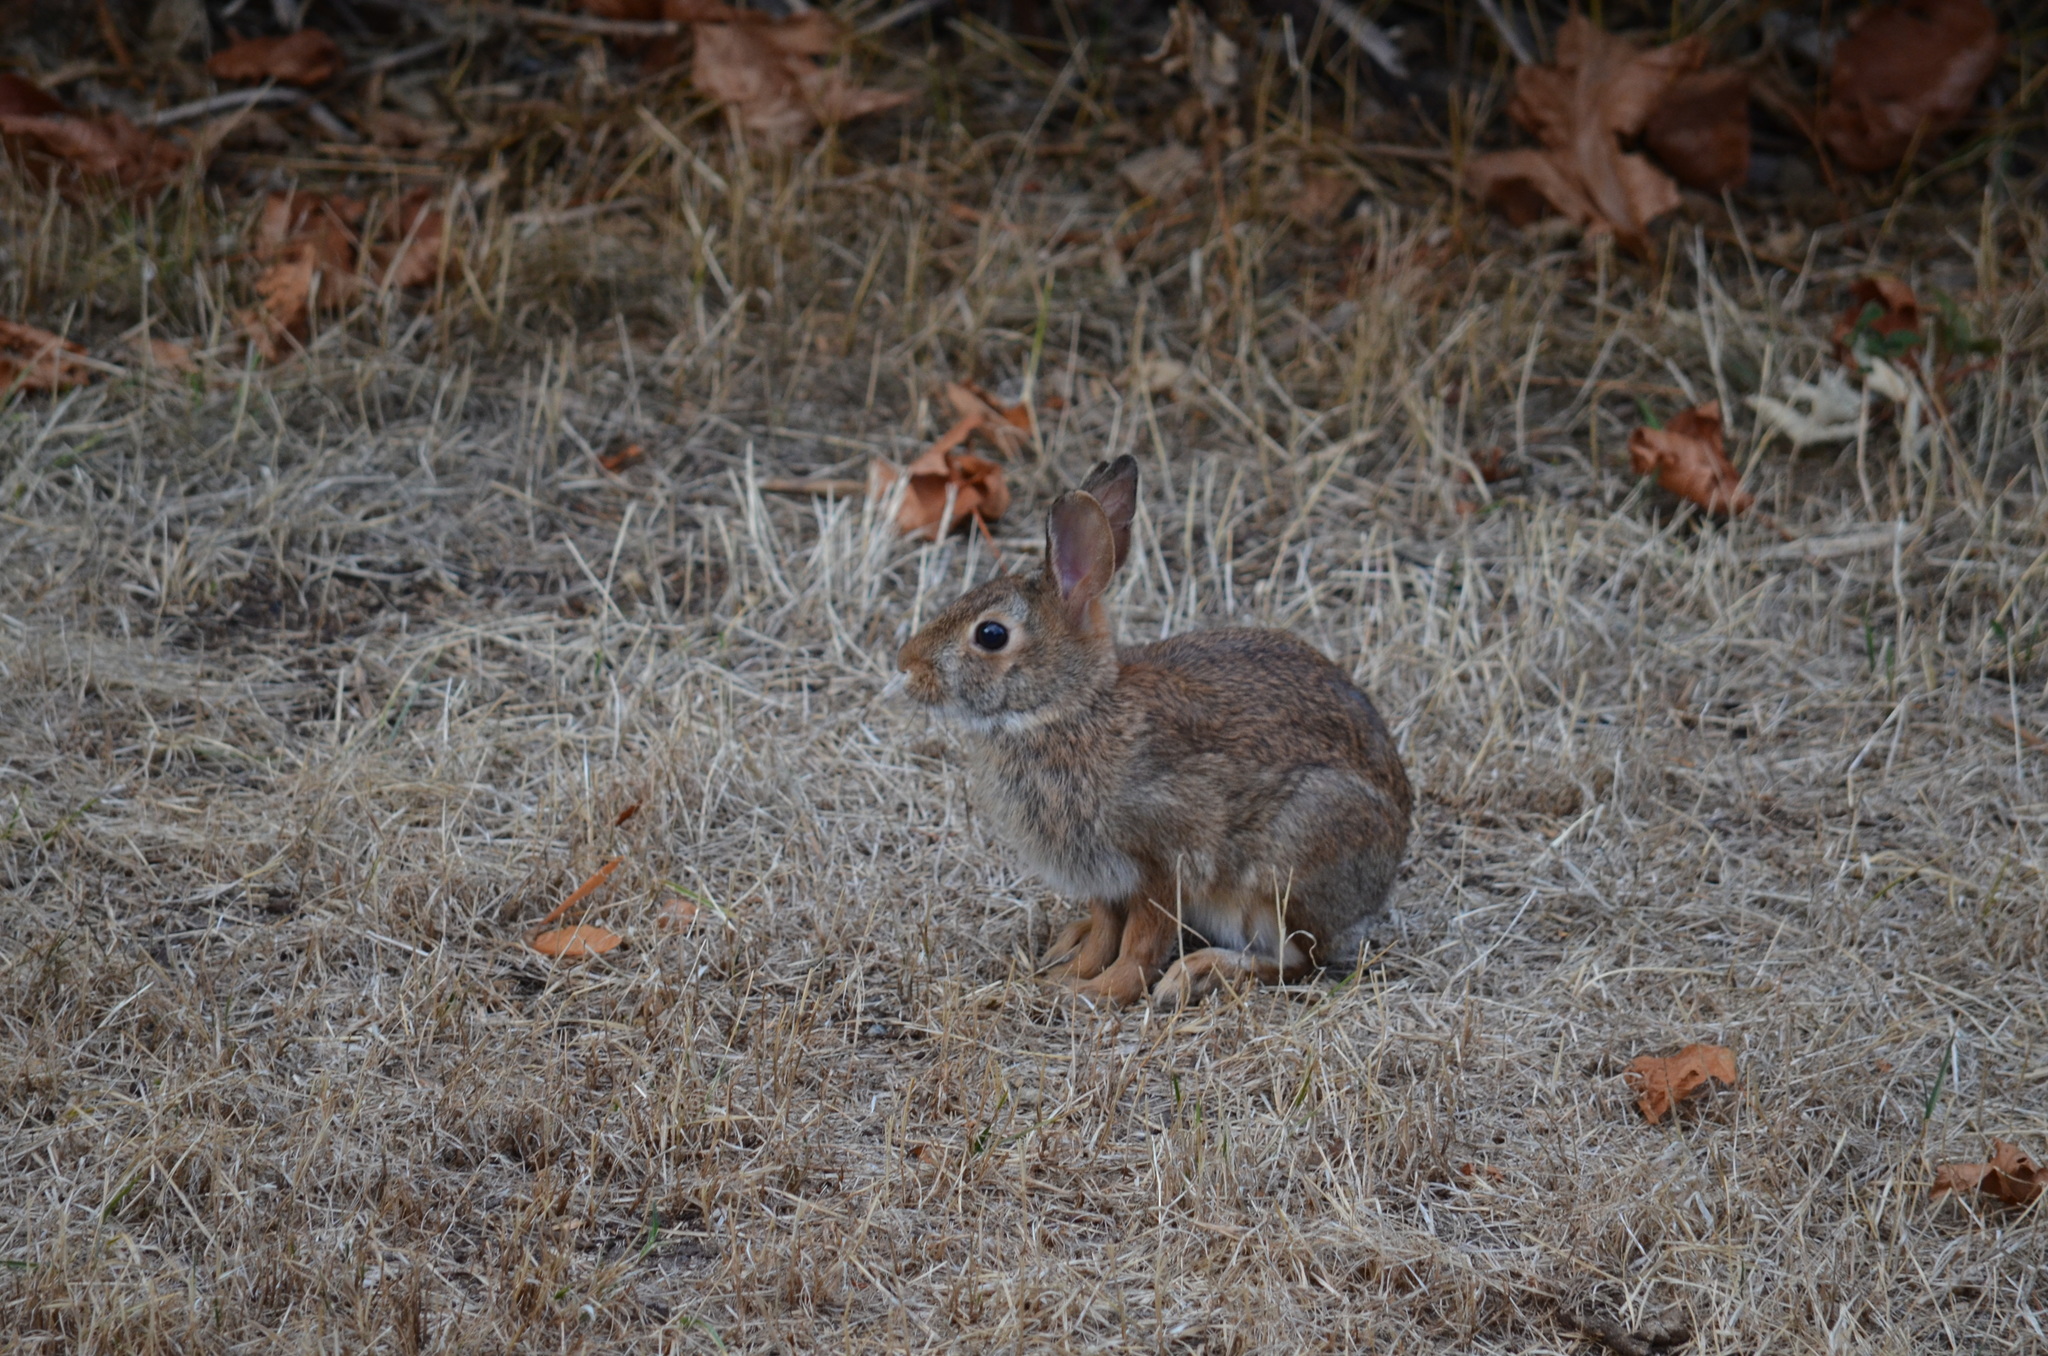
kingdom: Animalia
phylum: Chordata
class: Mammalia
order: Lagomorpha
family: Leporidae
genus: Sylvilagus
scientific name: Sylvilagus floridanus
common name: Eastern cottontail
